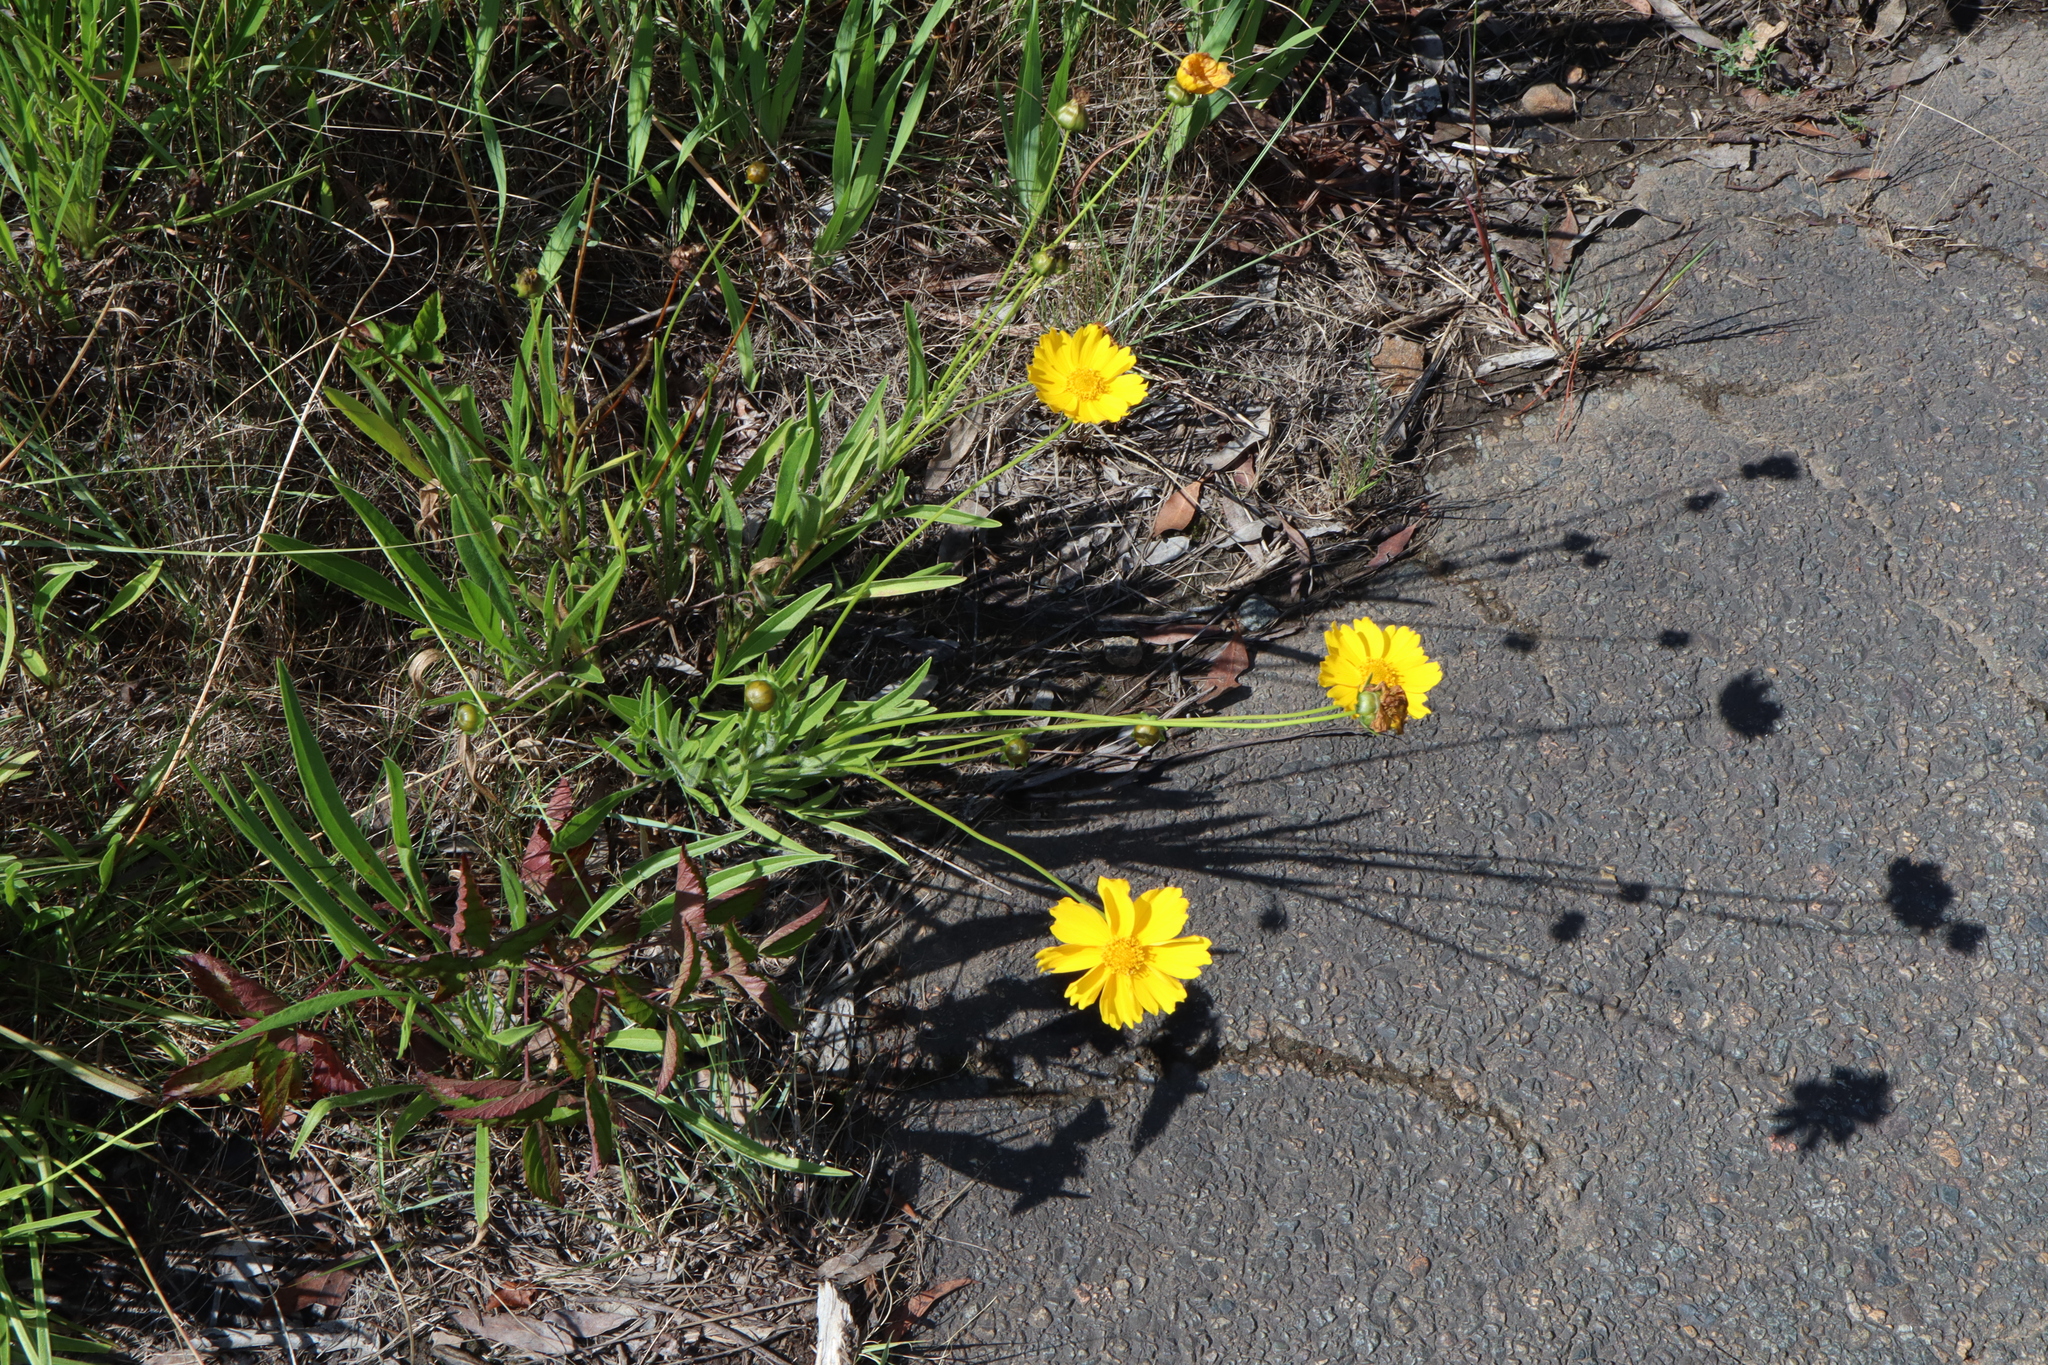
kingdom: Plantae
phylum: Tracheophyta
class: Magnoliopsida
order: Asterales
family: Asteraceae
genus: Coreopsis
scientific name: Coreopsis lanceolata
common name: Garden coreopsis
